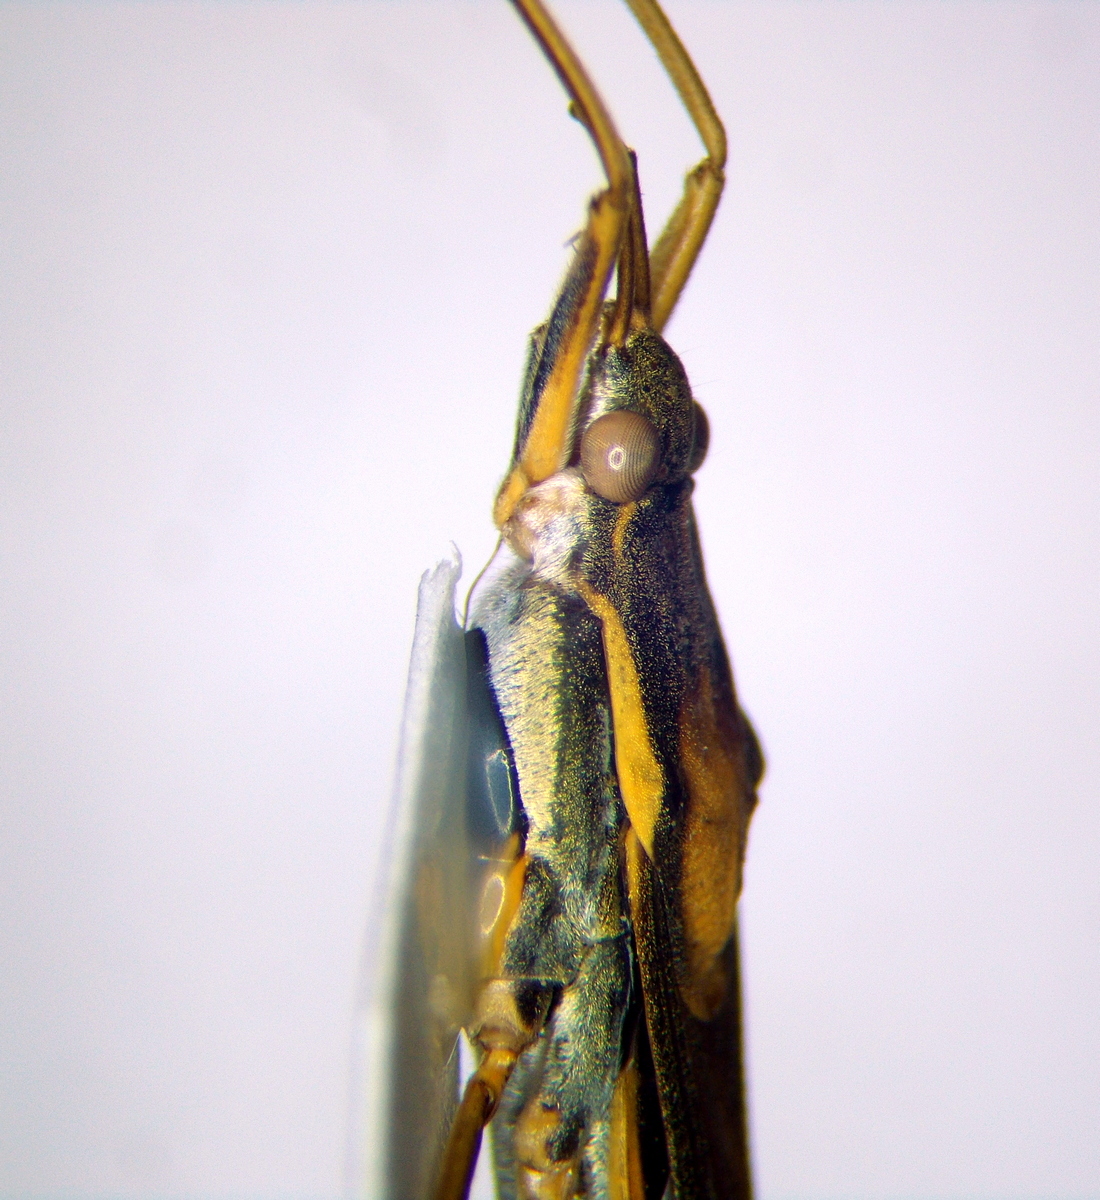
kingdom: Animalia
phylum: Arthropoda
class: Insecta
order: Hemiptera
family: Gerridae
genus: Gerris
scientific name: Gerris thoracicus
